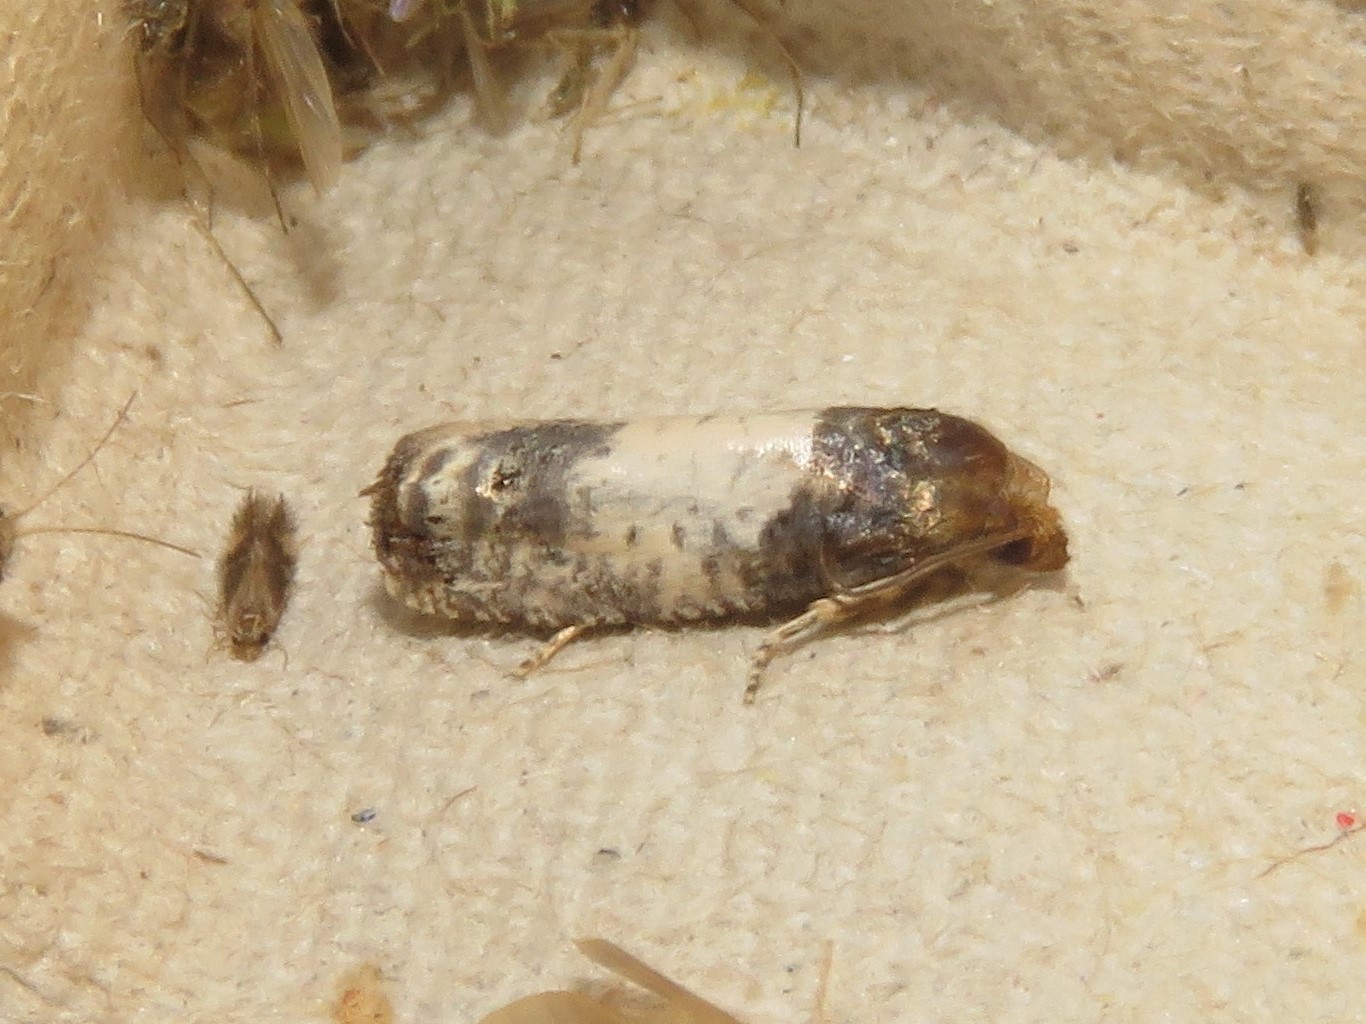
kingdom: Animalia
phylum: Arthropoda
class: Insecta
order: Lepidoptera
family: Tortricidae
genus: Epiblema
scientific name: Epiblema scudderiana
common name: Goldenrod gall moth
